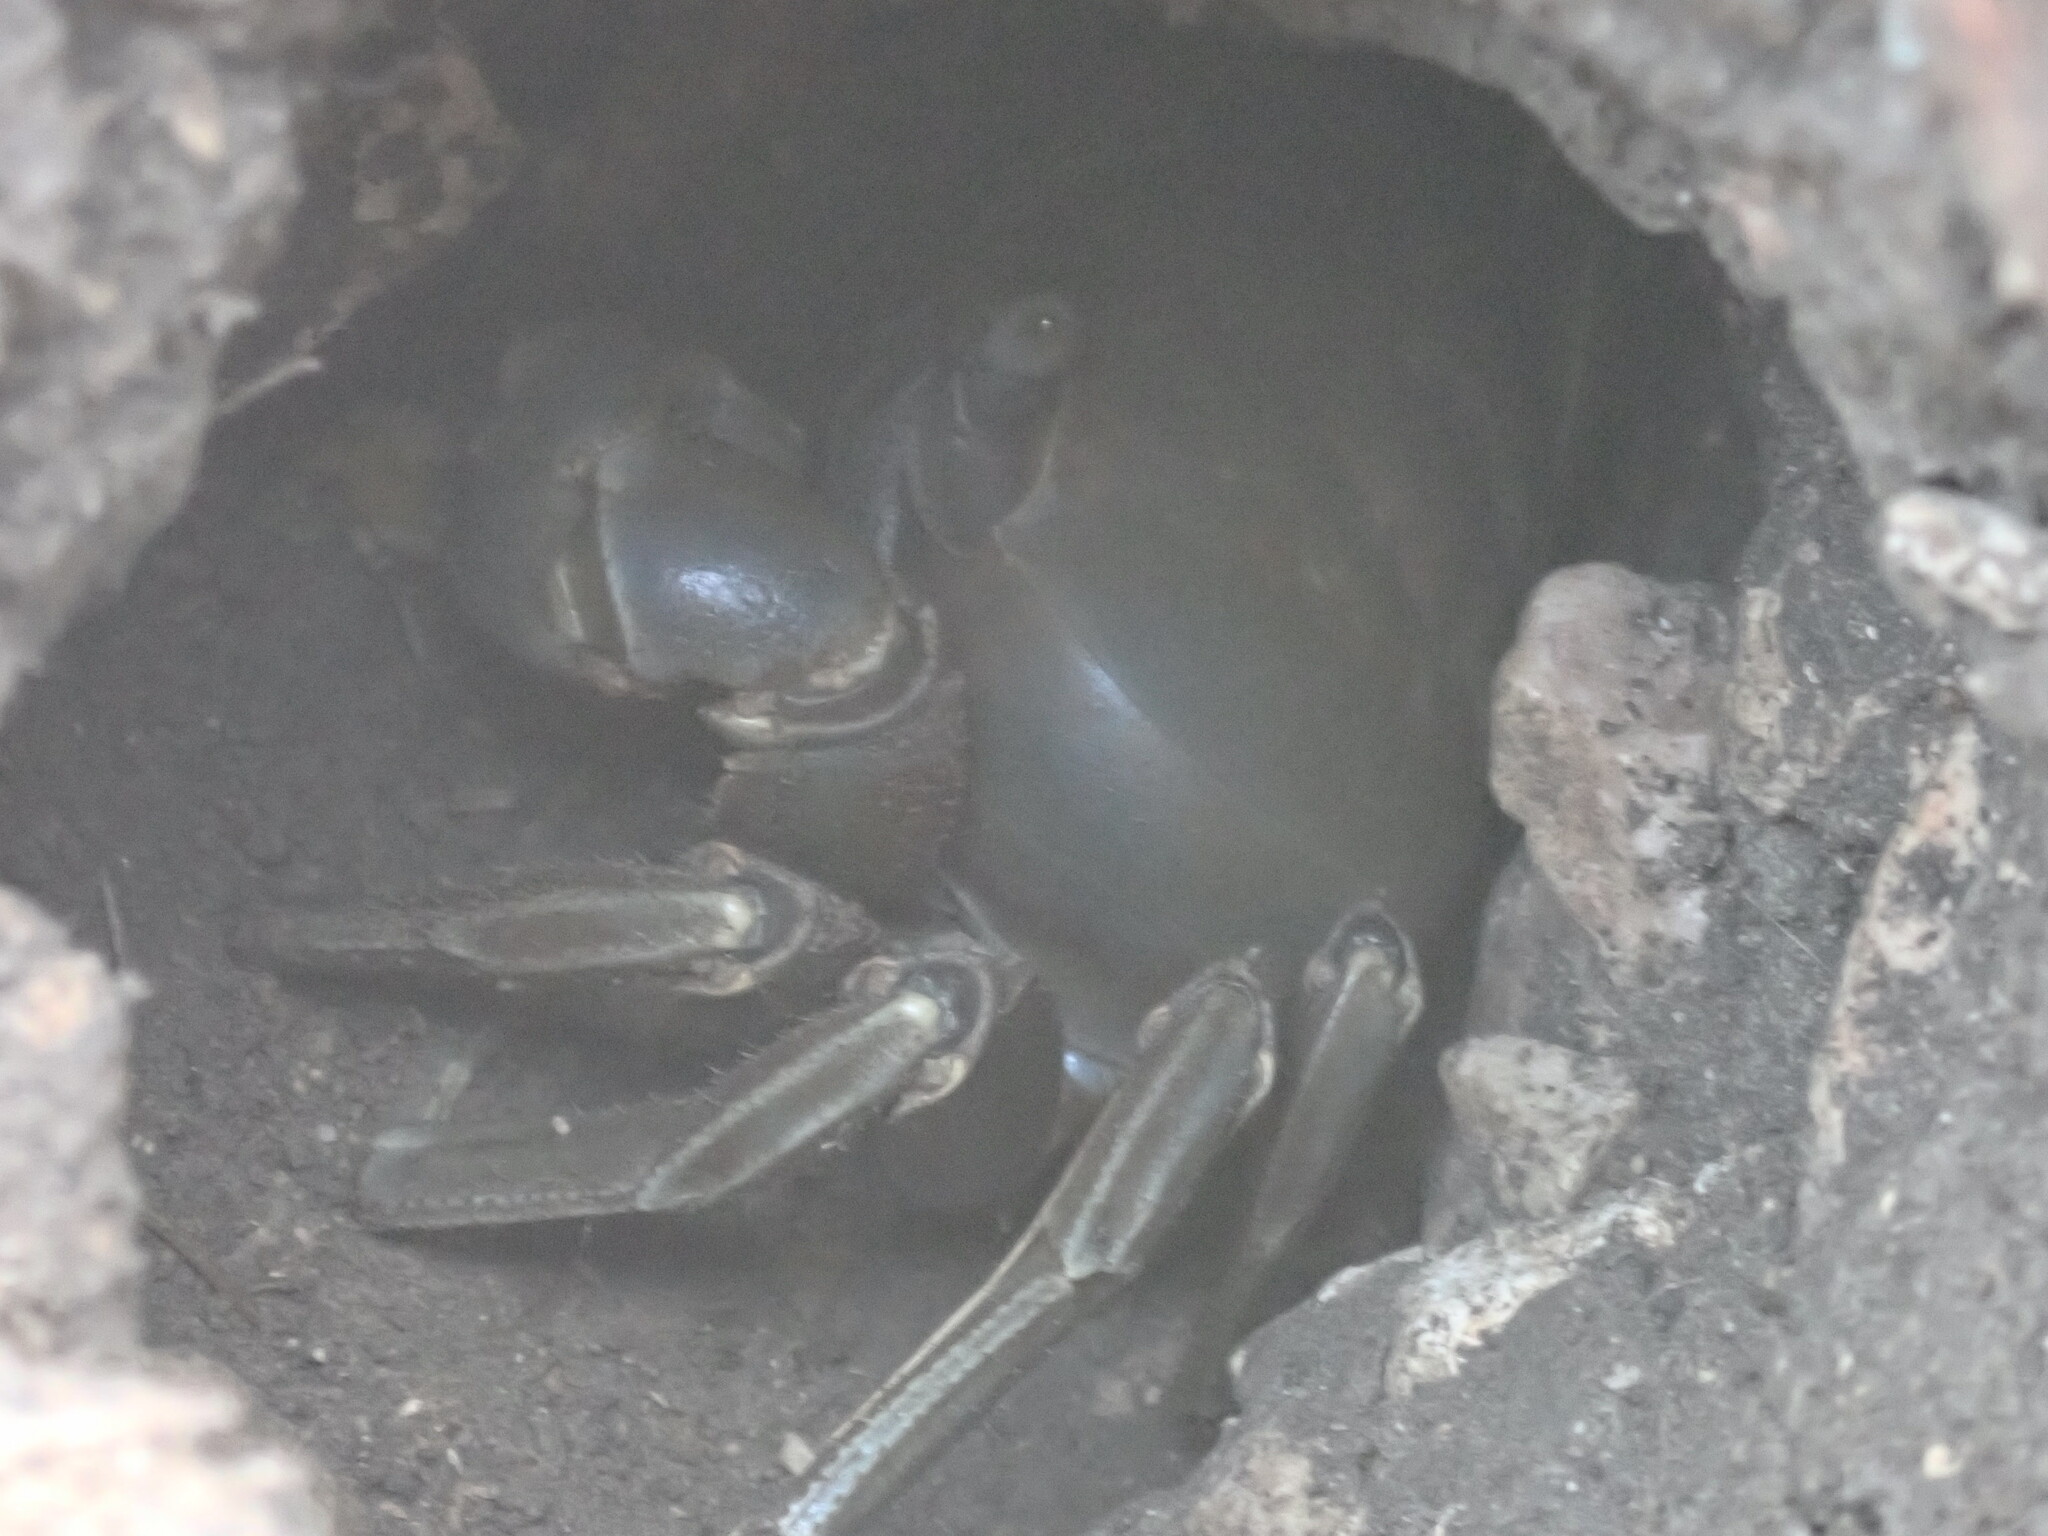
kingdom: Animalia
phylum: Arthropoda
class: Malacostraca
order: Decapoda
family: Gecarcinidae
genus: Cardisoma
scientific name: Cardisoma guanhumi
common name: Great land crab
